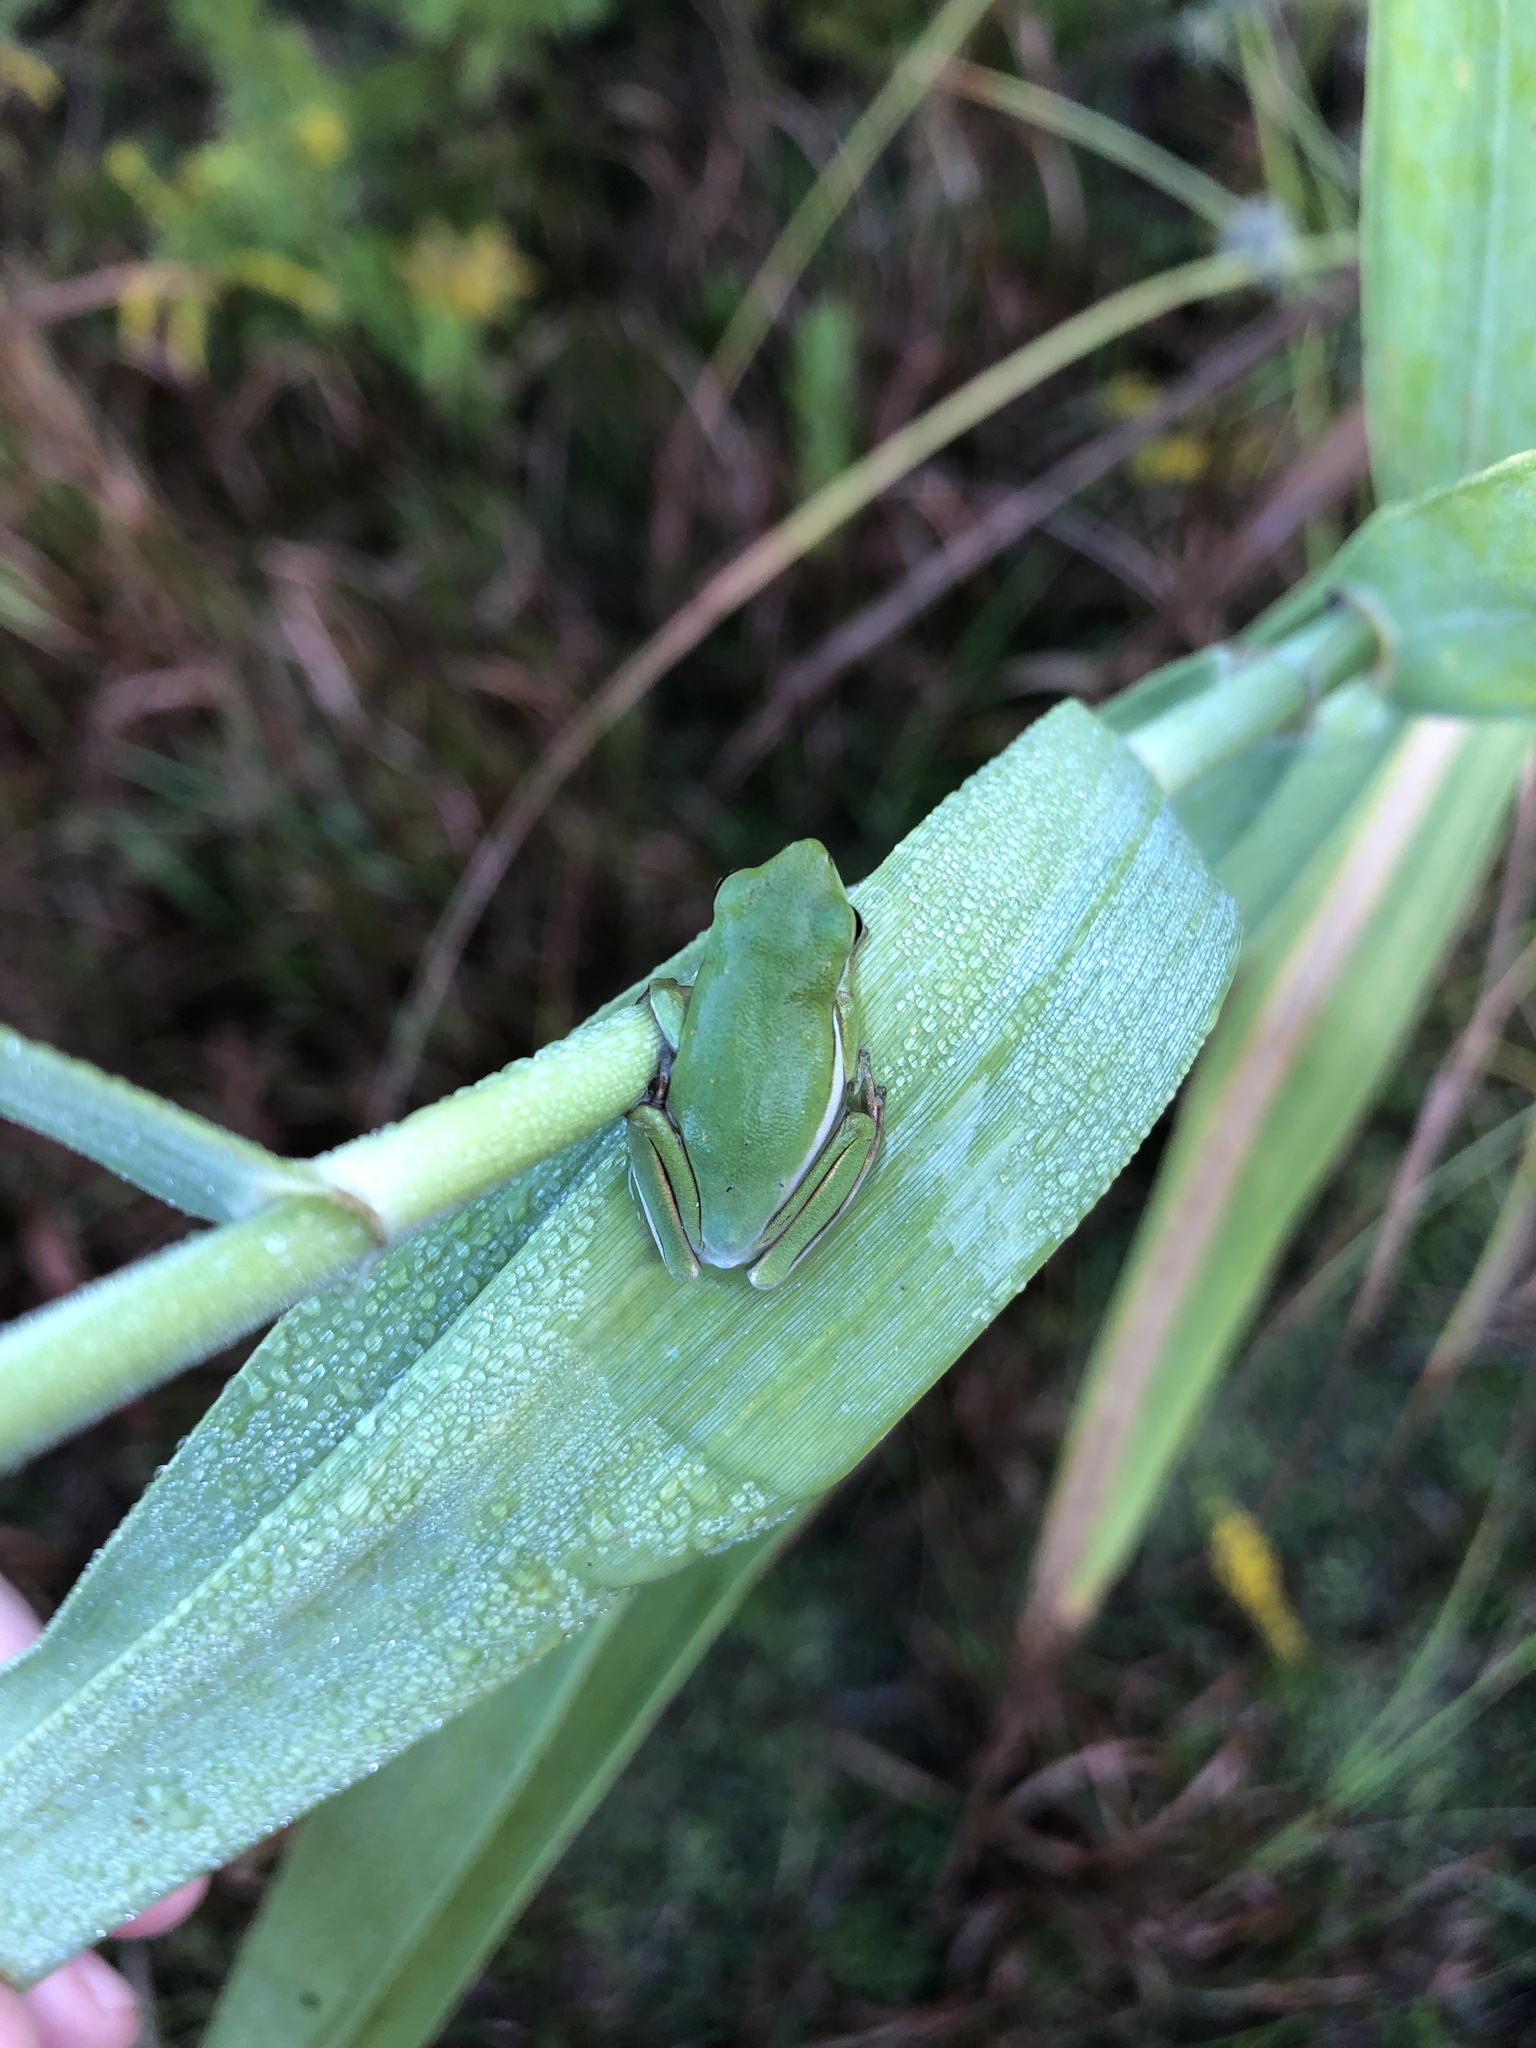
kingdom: Animalia
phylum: Chordata
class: Amphibia
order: Anura
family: Hylidae
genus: Dryophytes
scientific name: Dryophytes cinereus
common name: Green treefrog
